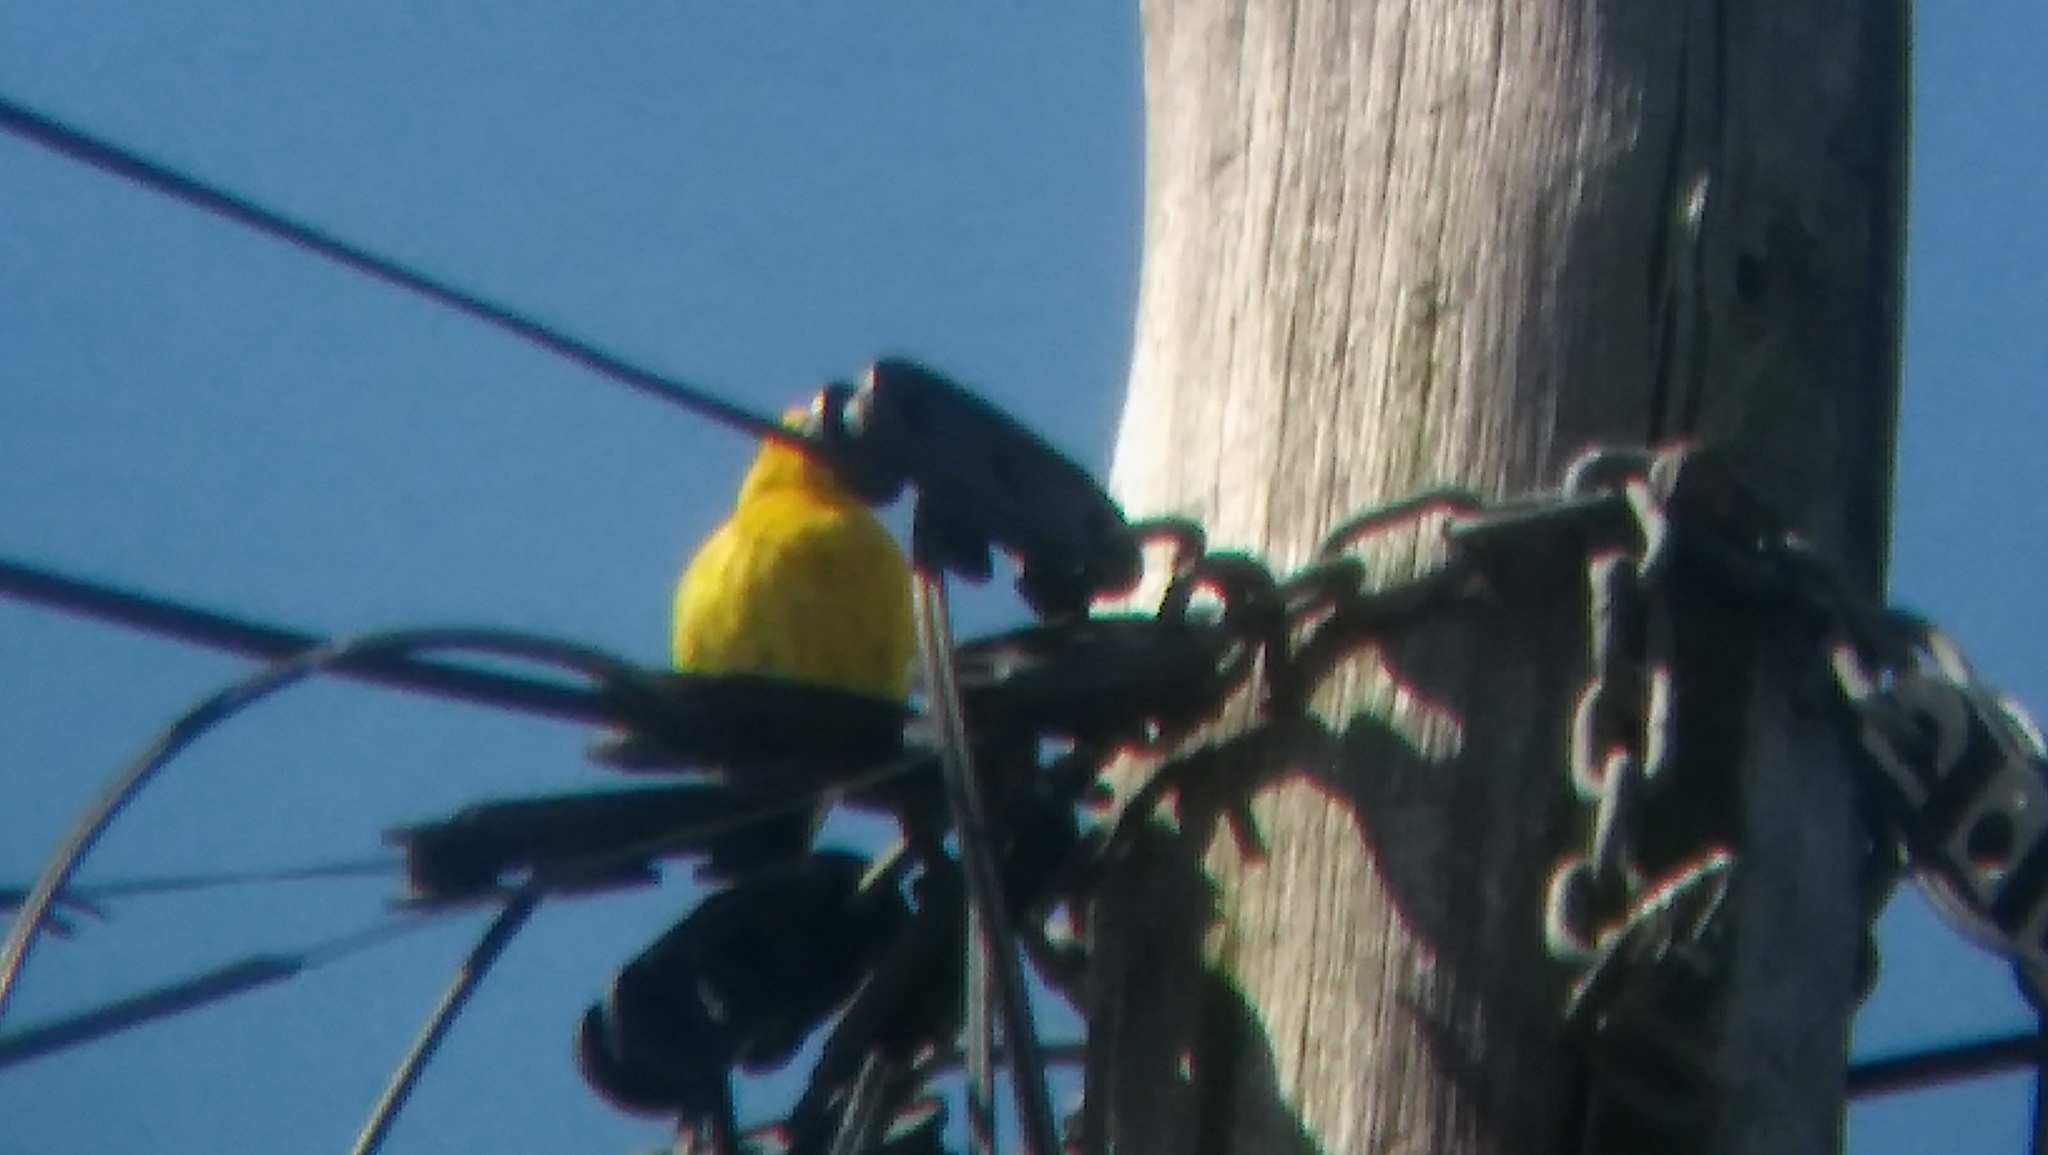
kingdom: Animalia
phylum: Chordata
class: Aves
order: Passeriformes
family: Thraupidae
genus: Sicalis
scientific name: Sicalis flaveola
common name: Saffron finch
